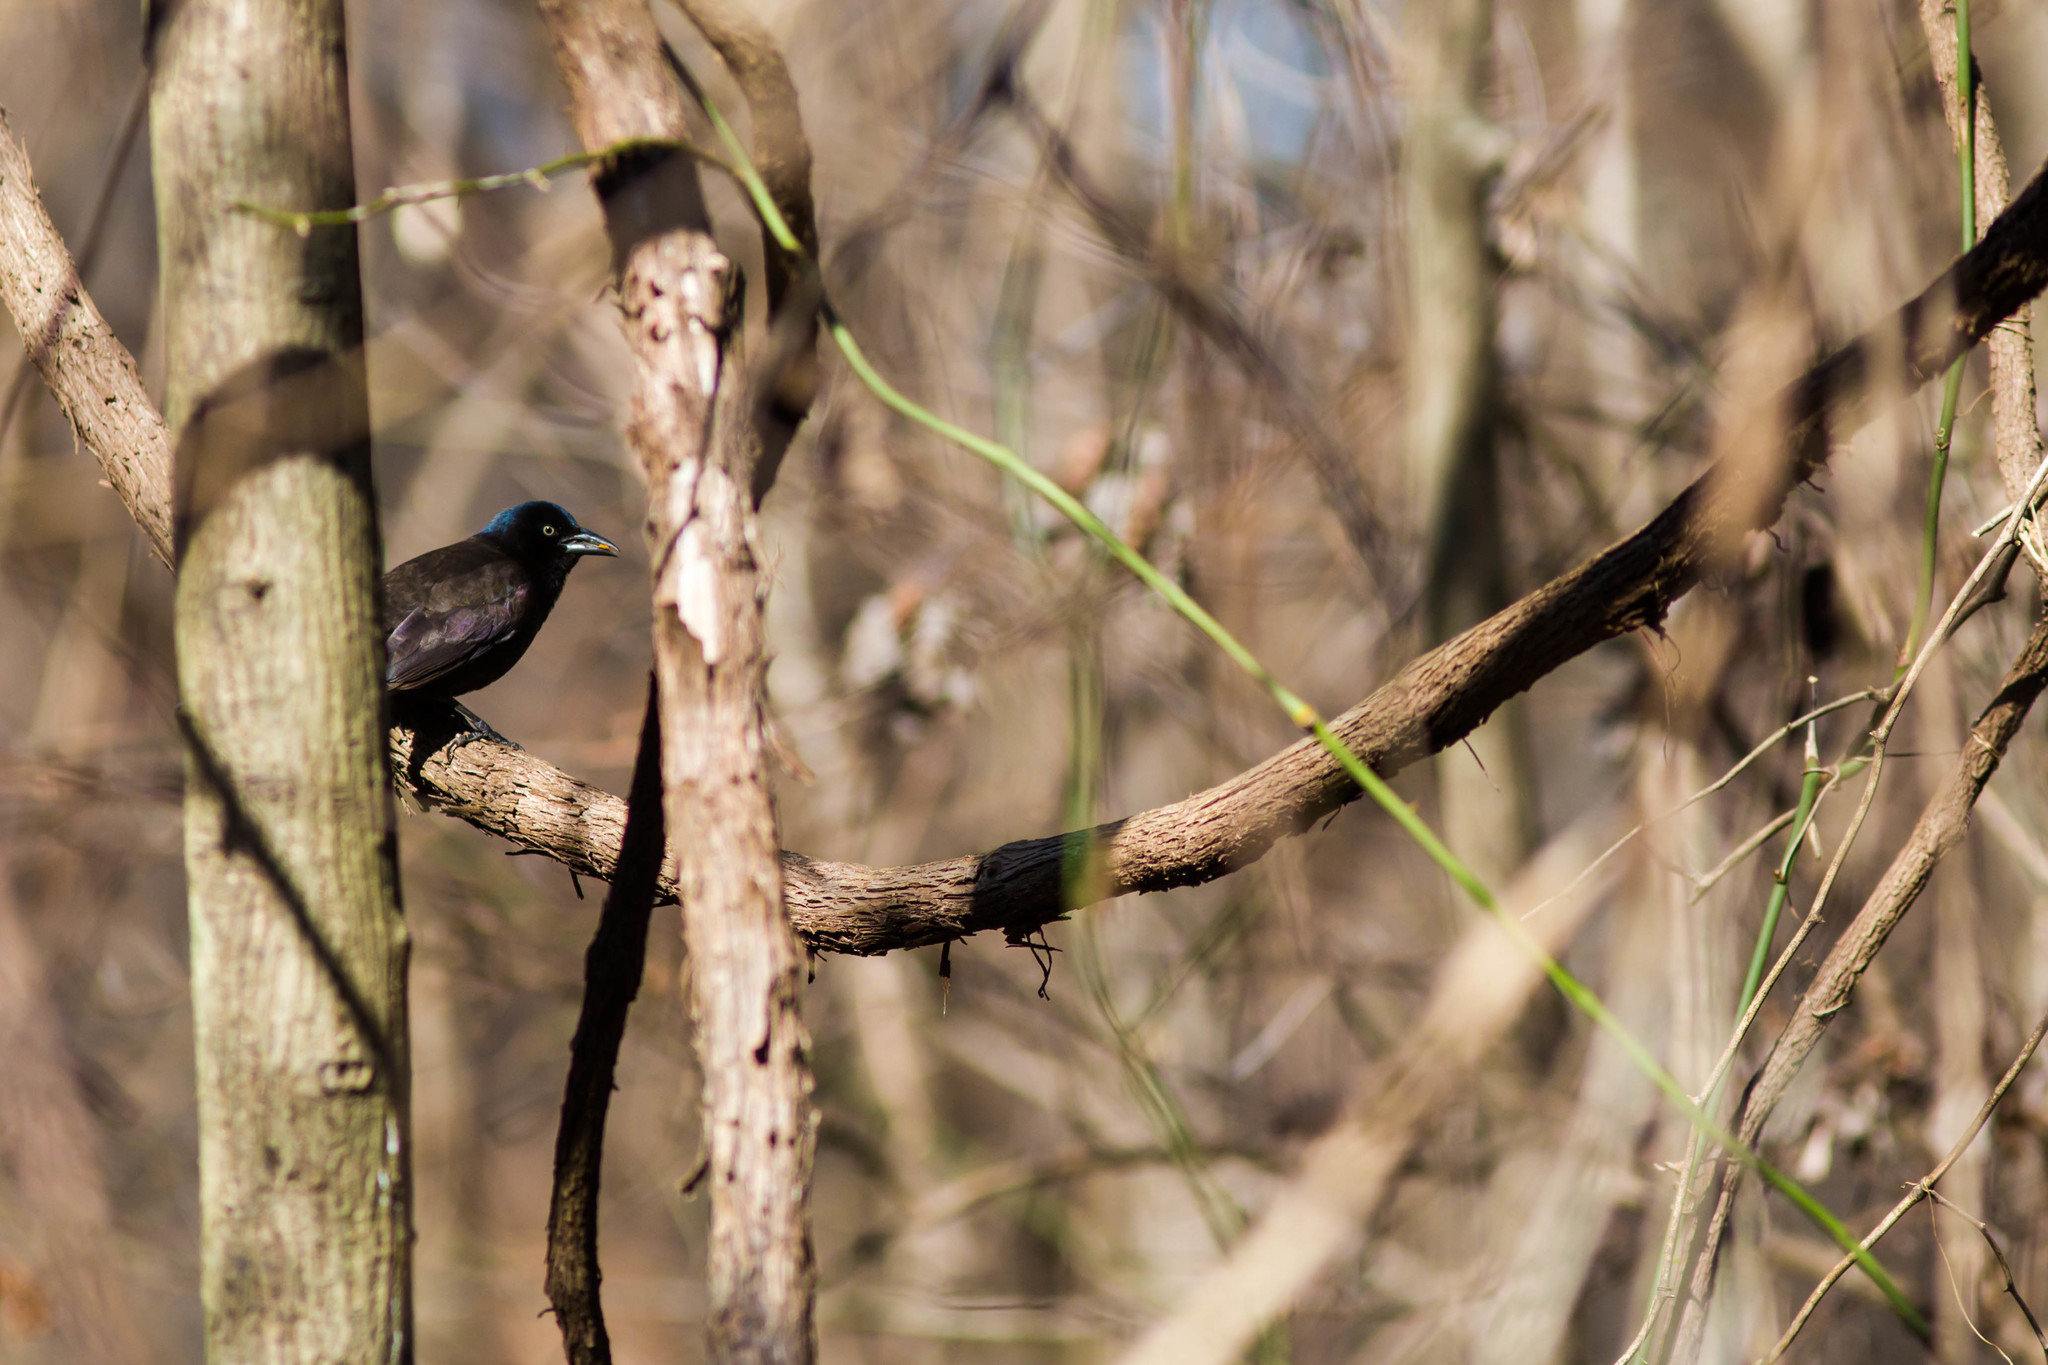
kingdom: Animalia
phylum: Chordata
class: Aves
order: Passeriformes
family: Icteridae
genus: Quiscalus
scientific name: Quiscalus quiscula
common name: Common grackle
